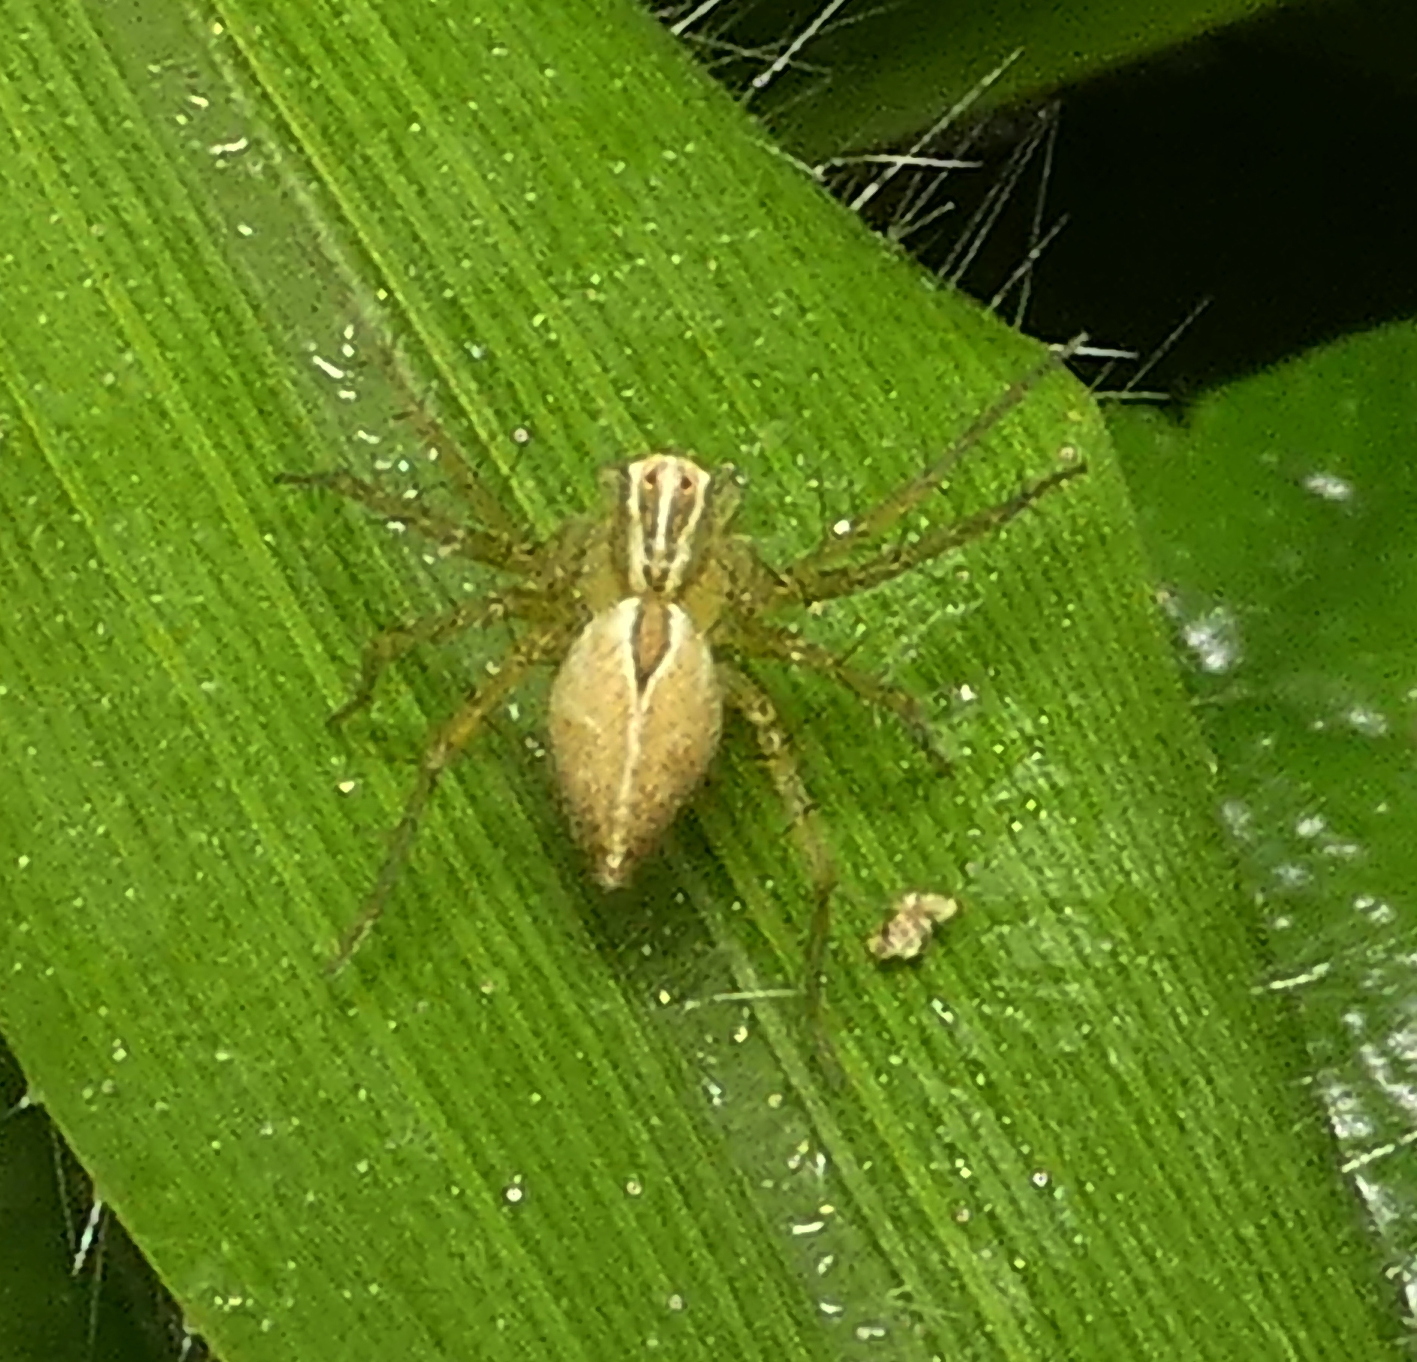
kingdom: Animalia
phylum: Arthropoda
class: Arachnida
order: Araneae
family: Oxyopidae
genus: Oxyopes
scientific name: Oxyopes salticus
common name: Lynx spiders
